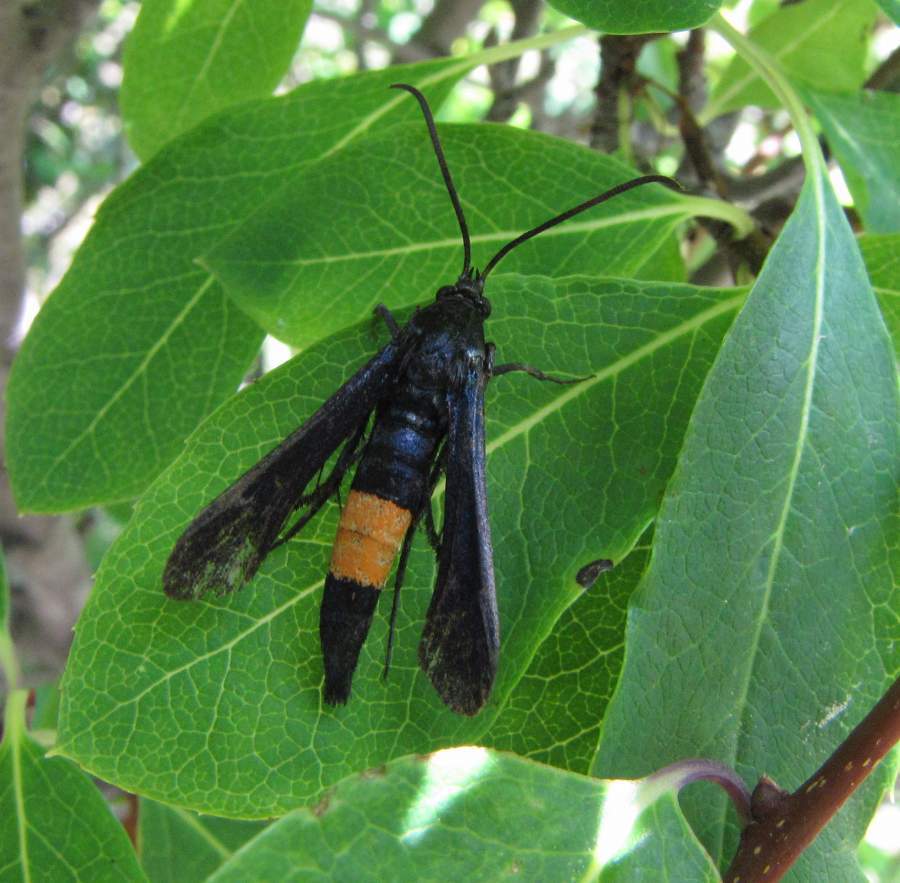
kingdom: Animalia
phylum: Arthropoda
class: Insecta
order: Lepidoptera
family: Sesiidae
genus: Synanthedon
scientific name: Synanthedon exitiosa
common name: Peachtree borer moth
